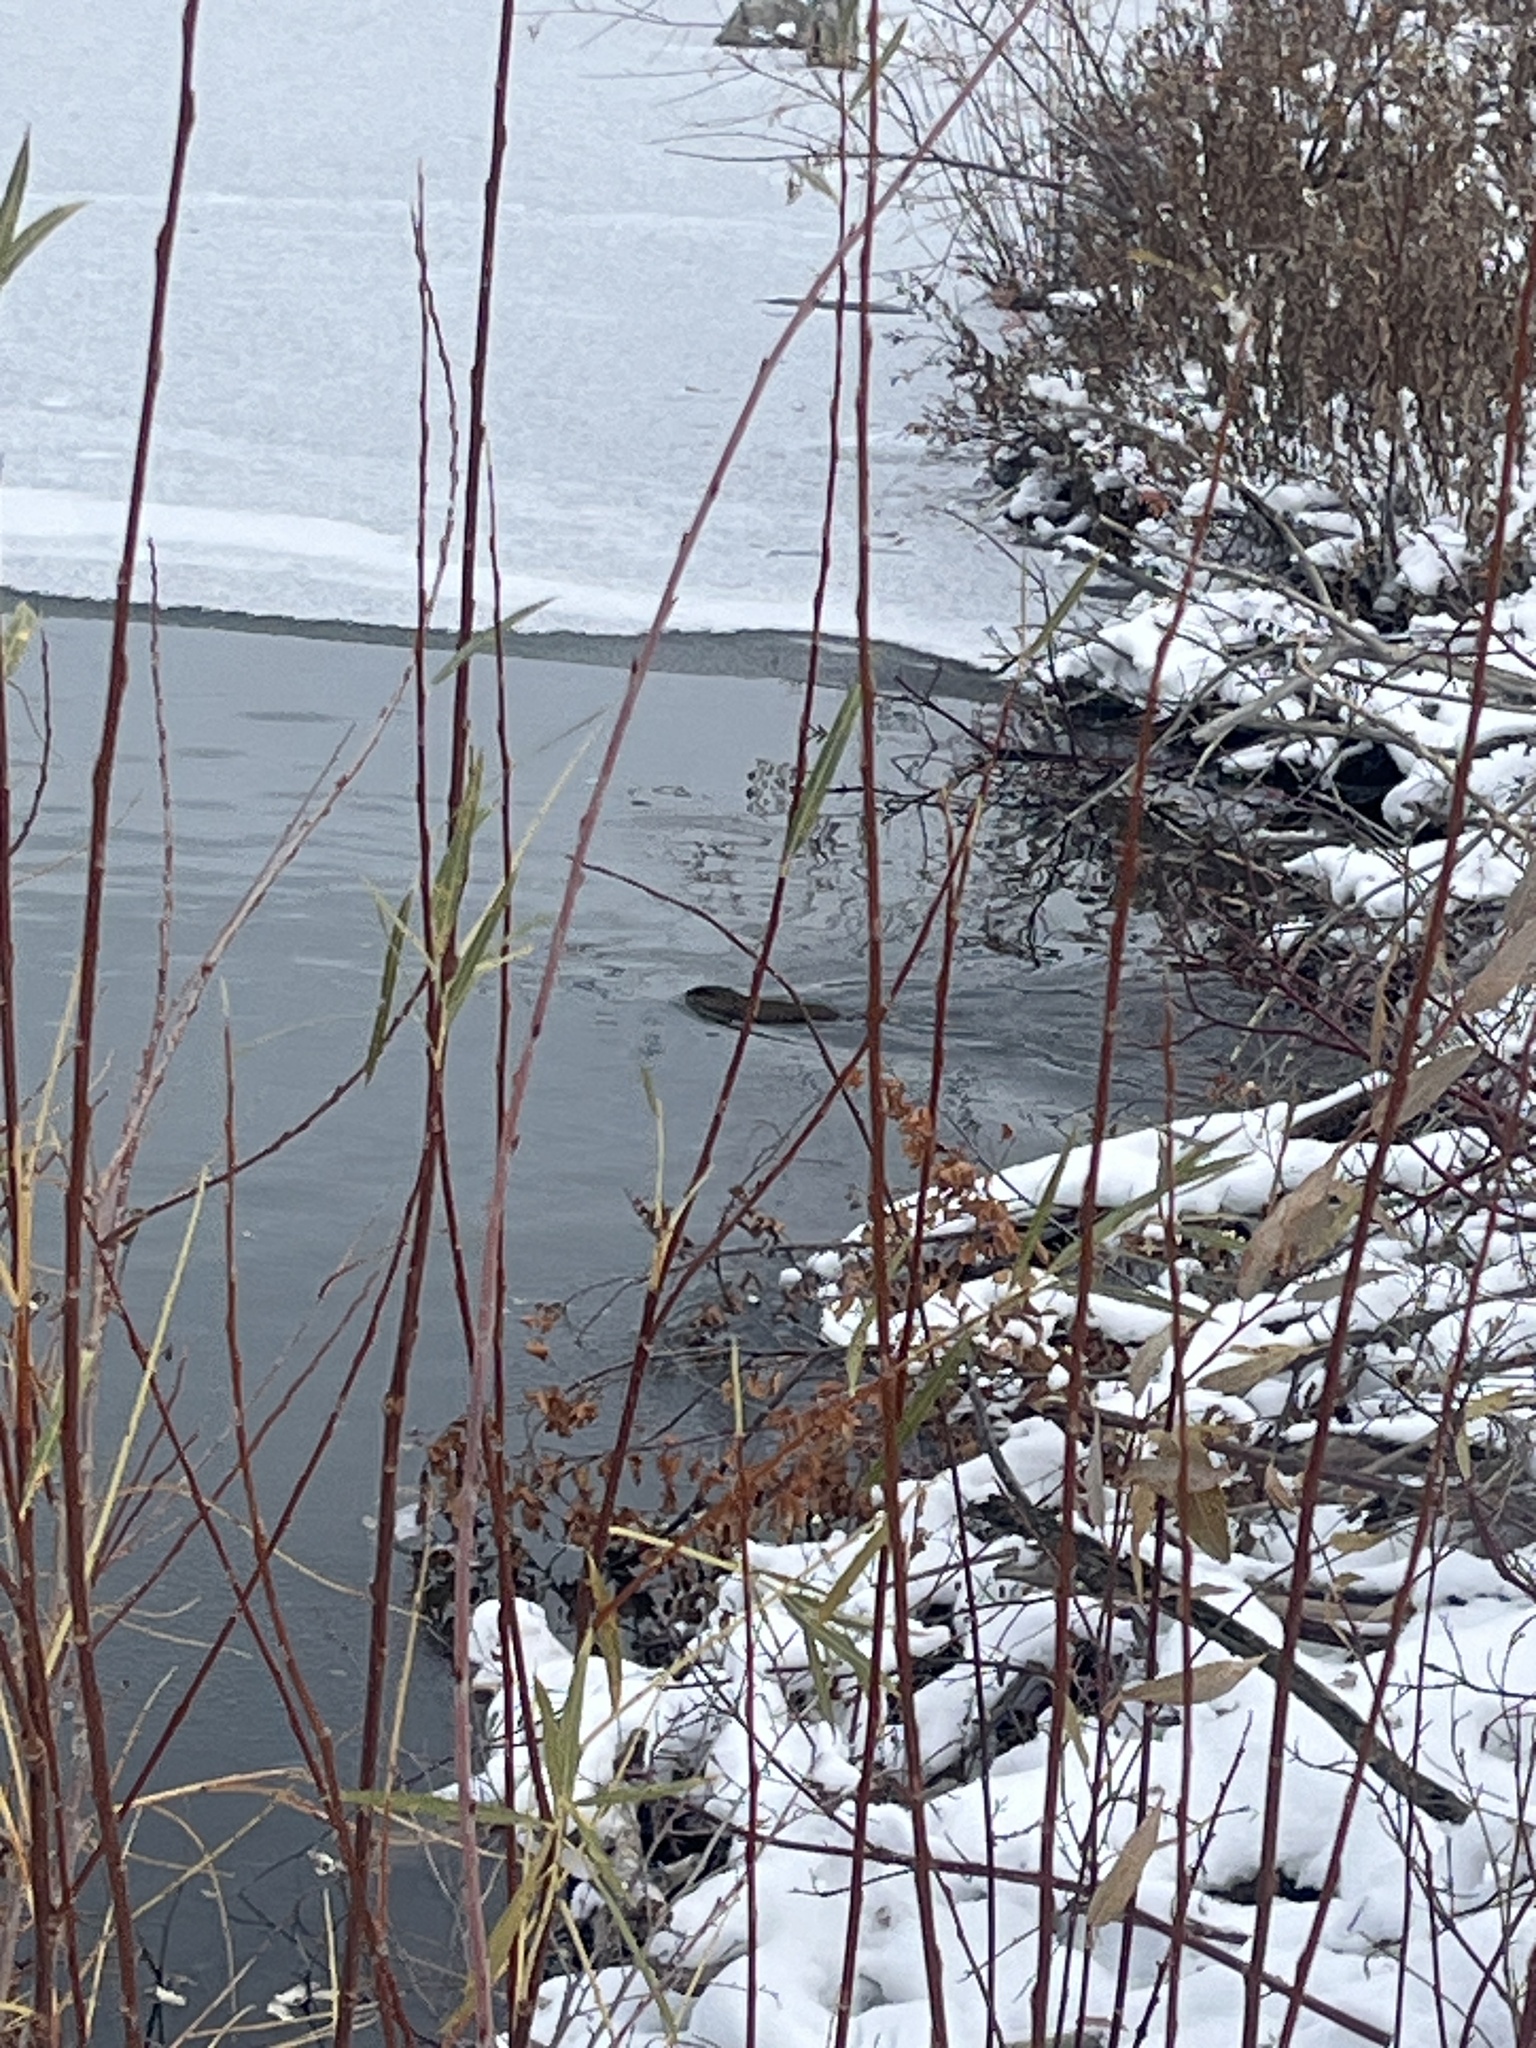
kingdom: Animalia
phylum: Chordata
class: Mammalia
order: Rodentia
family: Cricetidae
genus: Ondatra
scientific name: Ondatra zibethicus
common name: Muskrat
